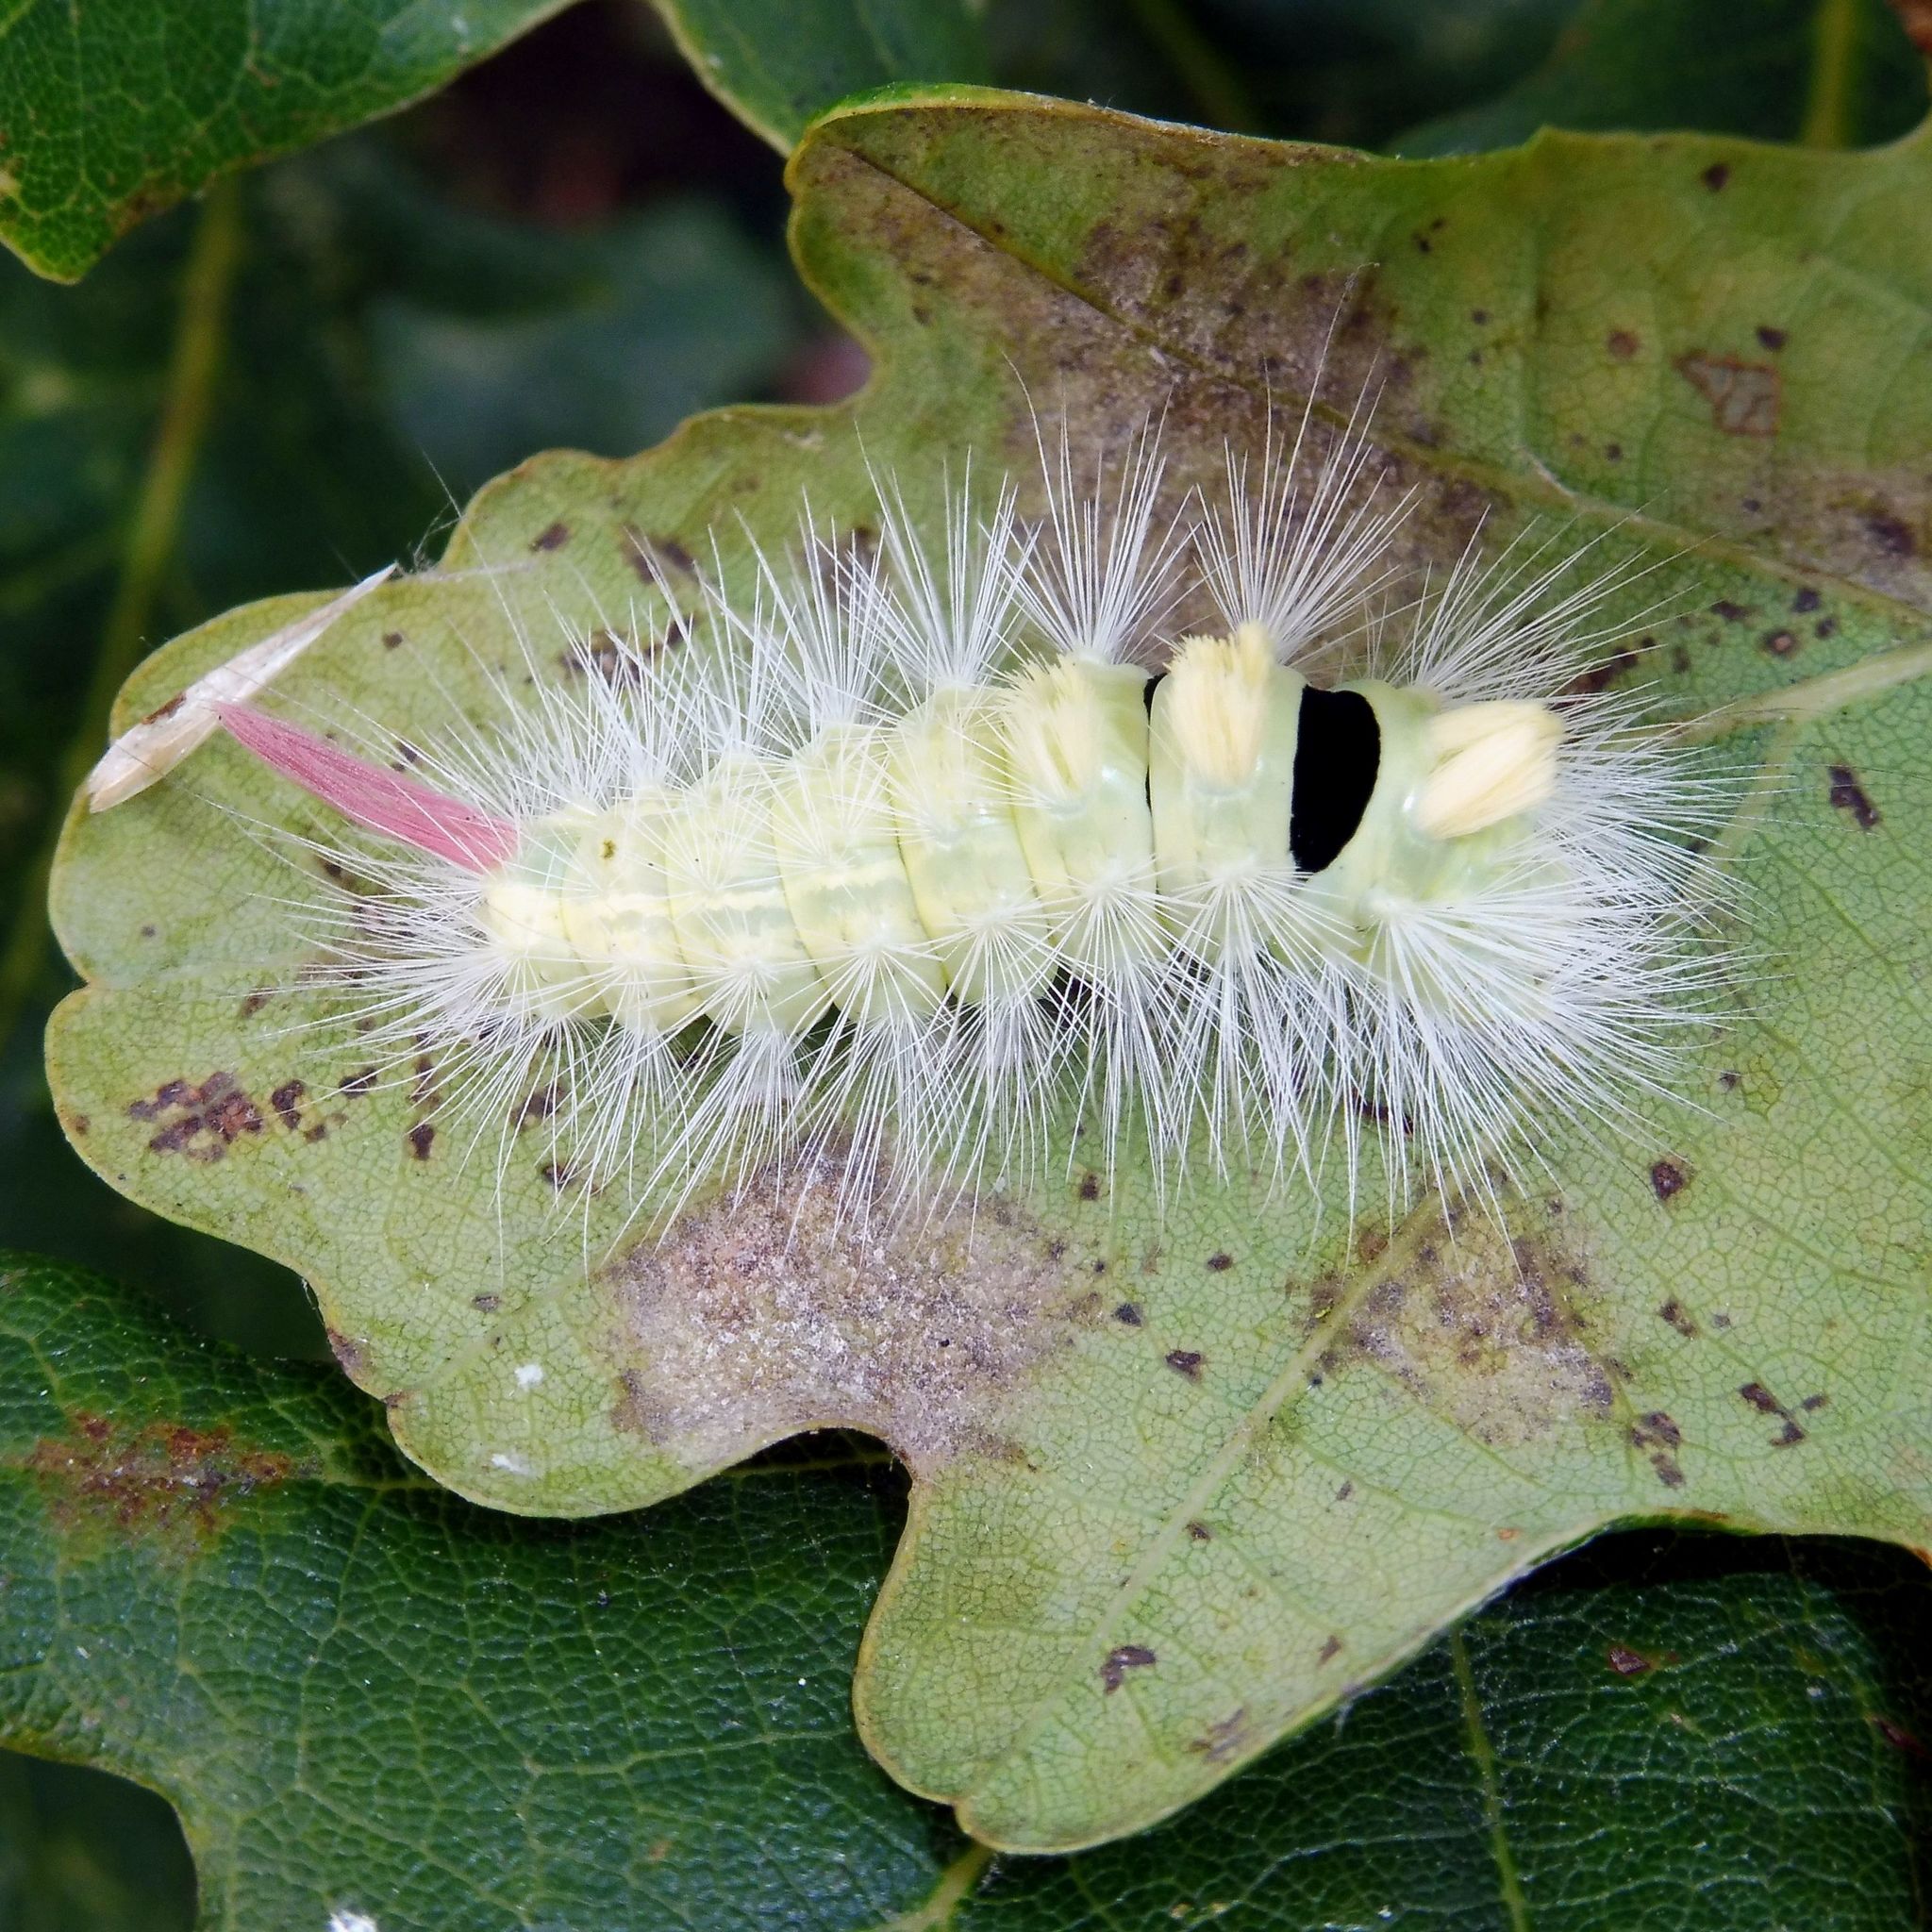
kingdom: Animalia
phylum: Arthropoda
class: Insecta
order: Lepidoptera
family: Erebidae
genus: Calliteara
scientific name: Calliteara pudibunda
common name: Pale tussock
